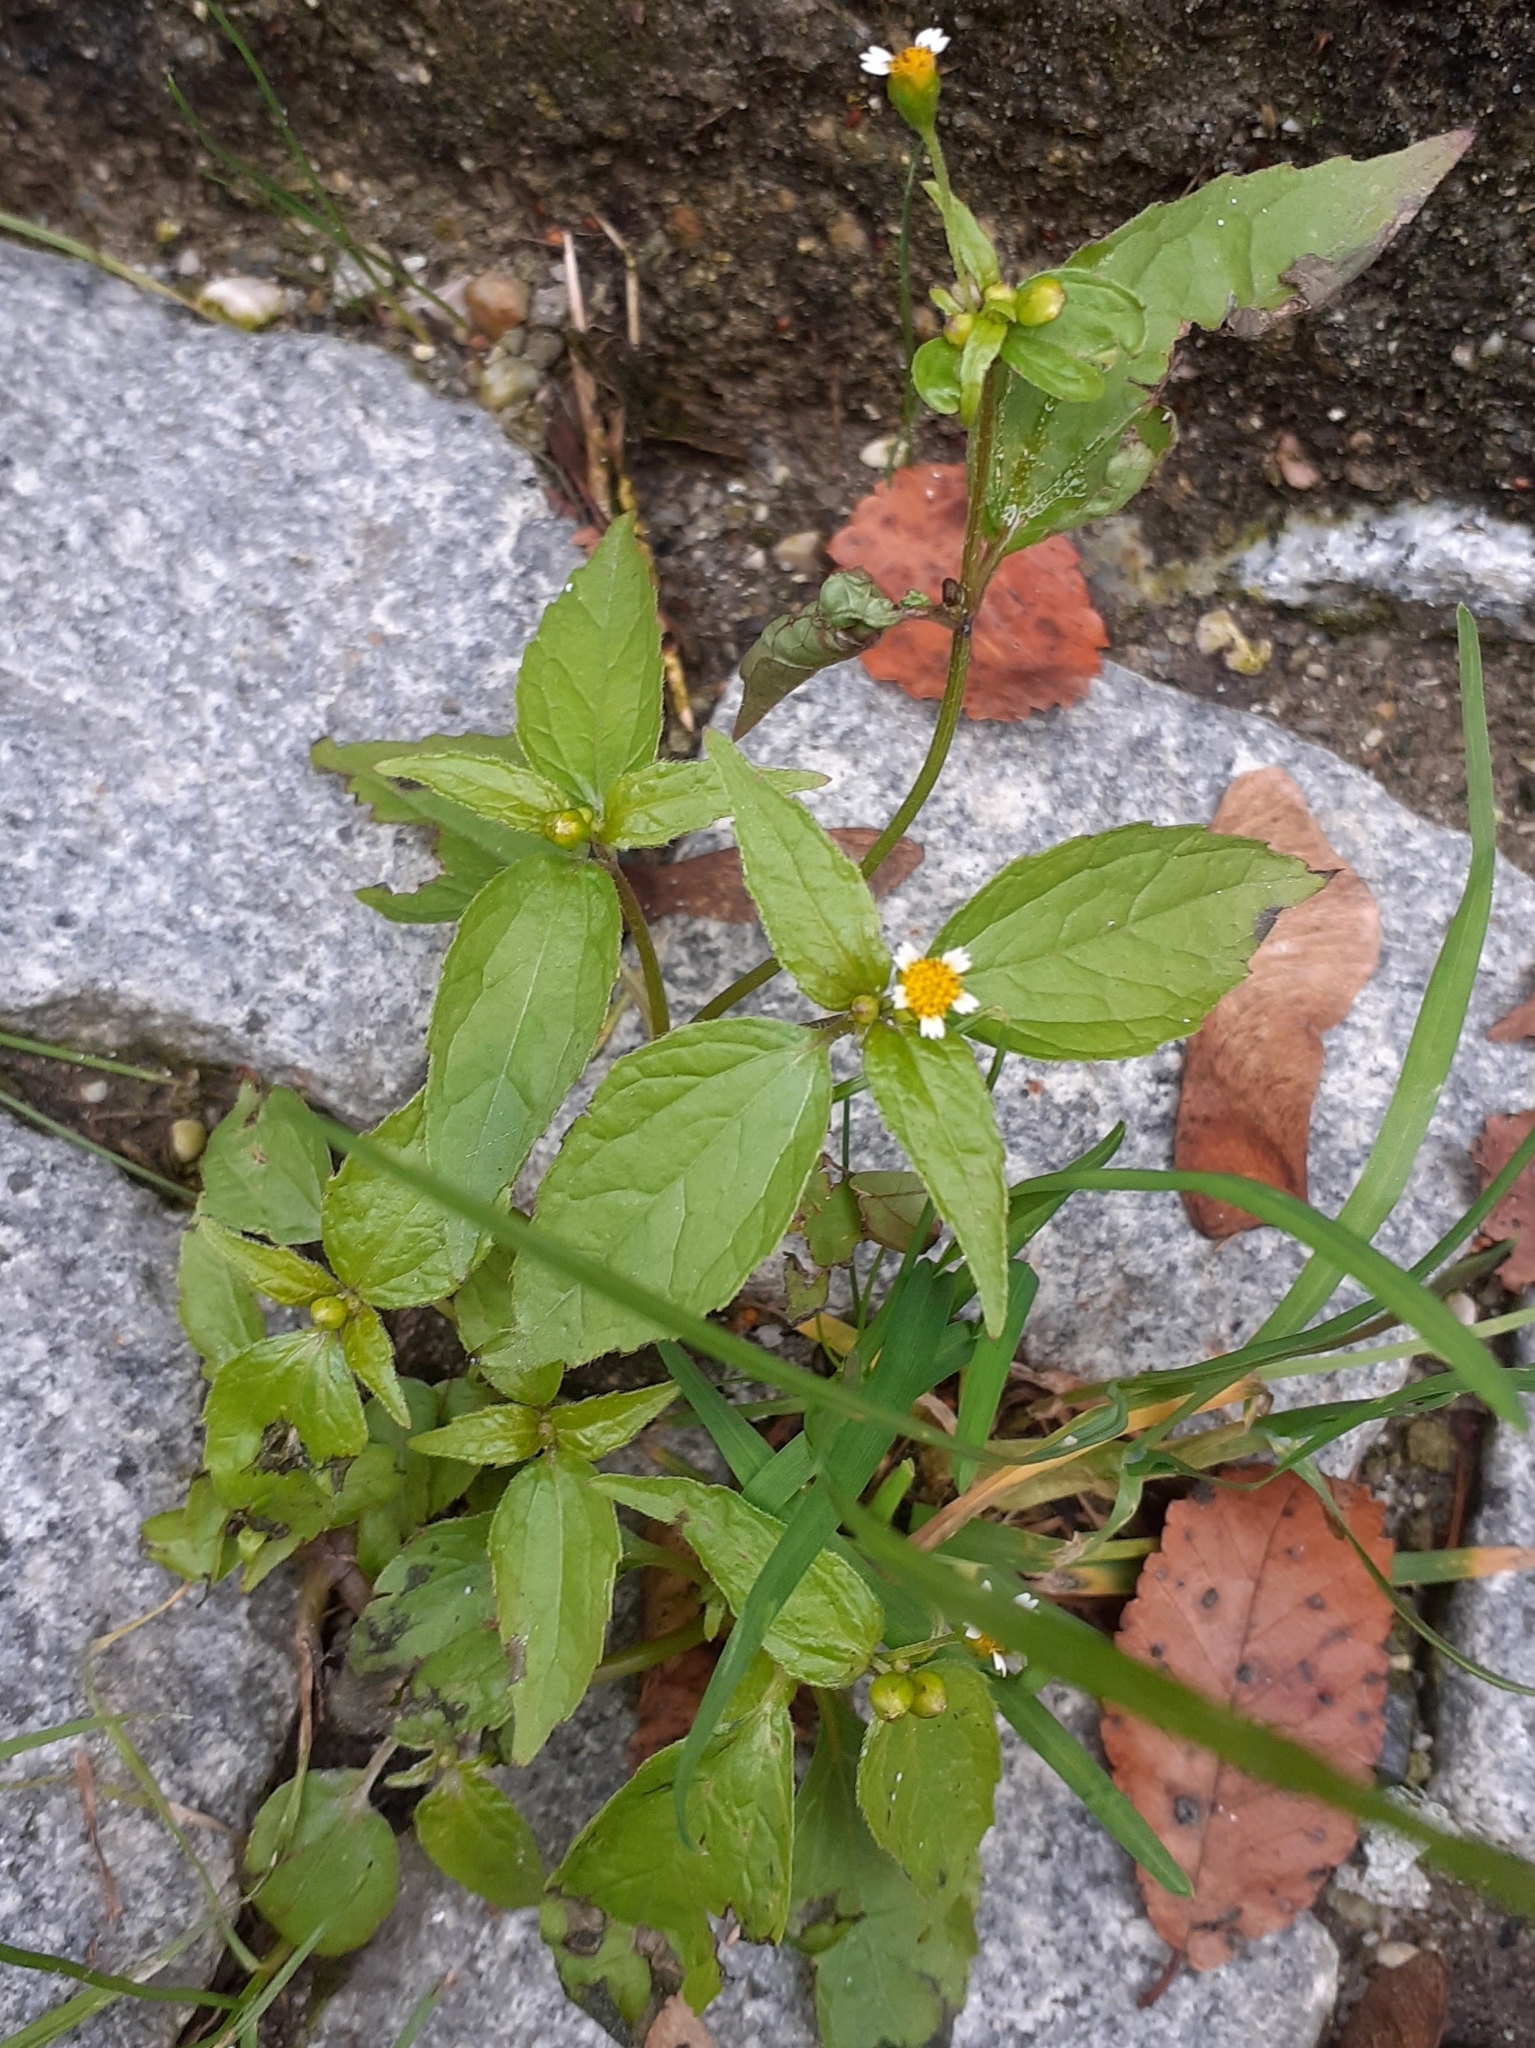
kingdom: Plantae
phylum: Tracheophyta
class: Magnoliopsida
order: Asterales
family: Asteraceae
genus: Galinsoga
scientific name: Galinsoga parviflora
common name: Gallant soldier
